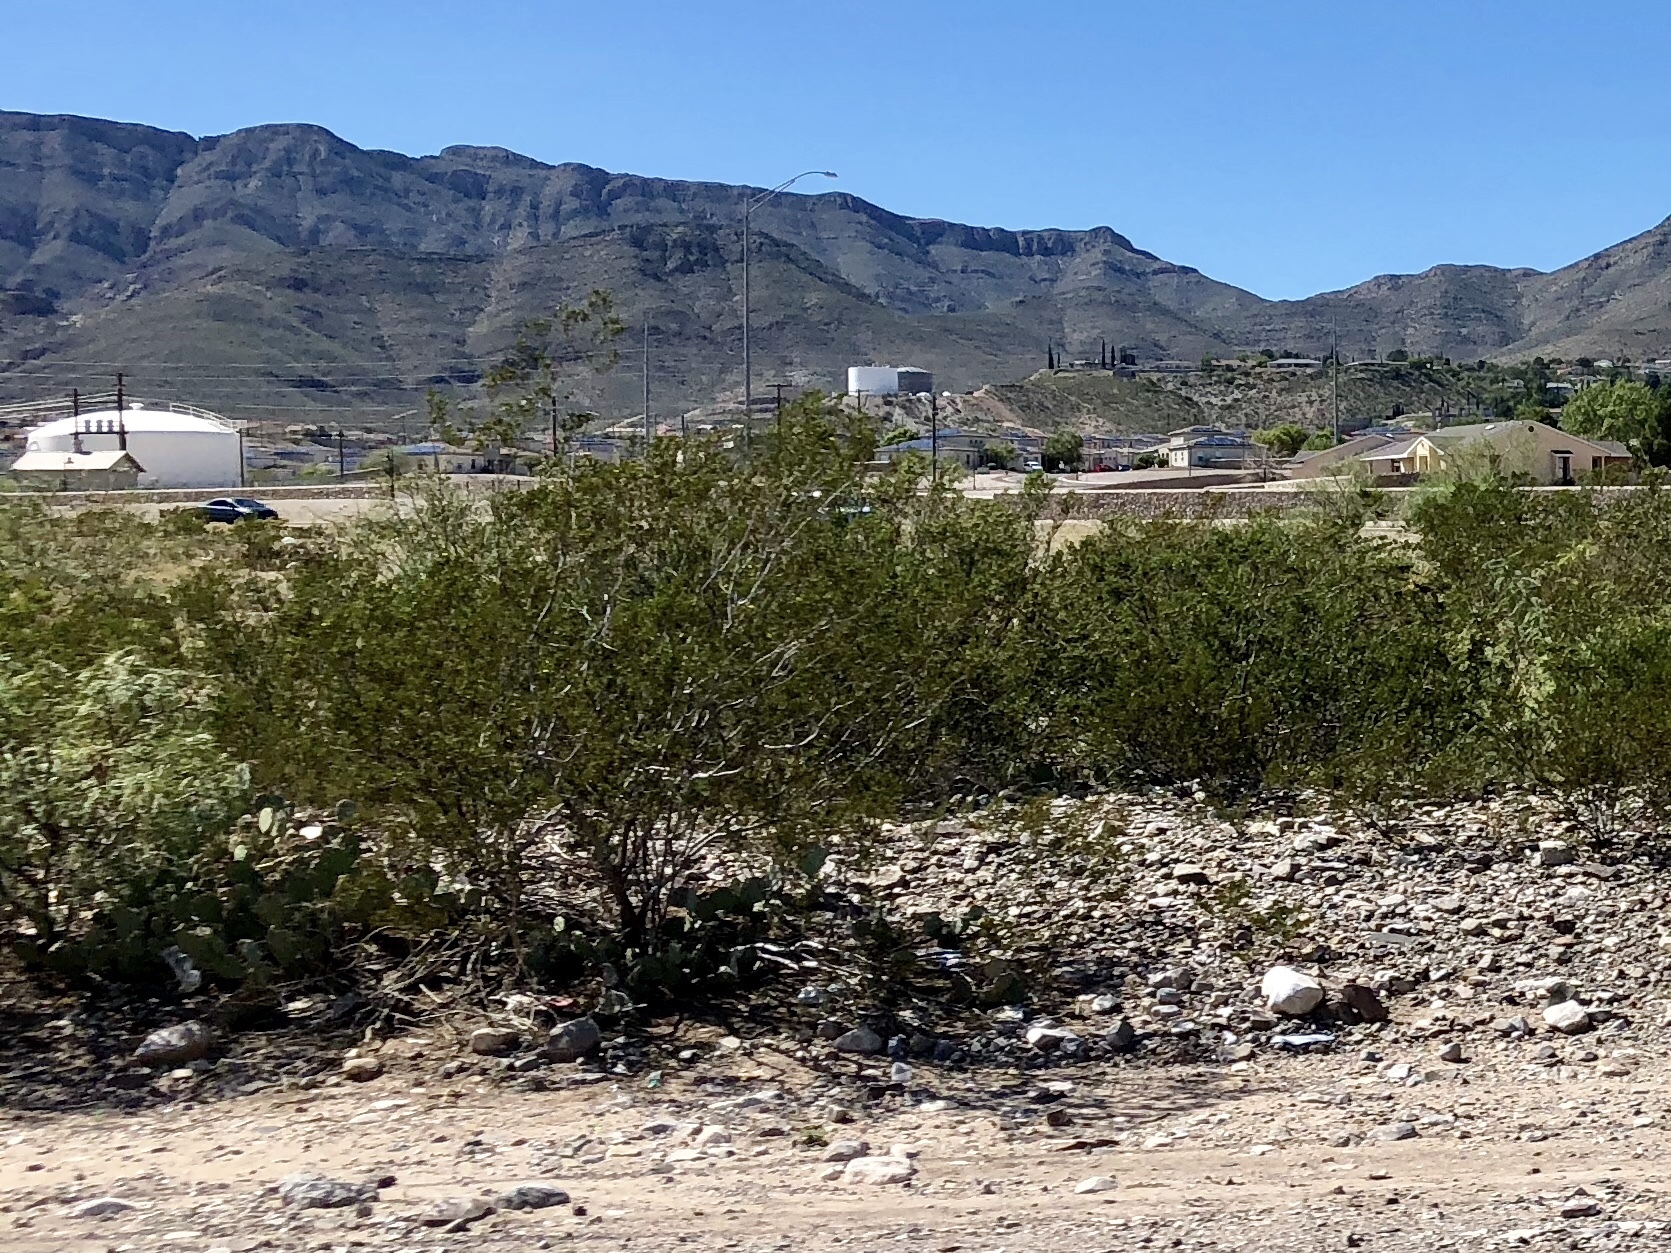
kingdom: Plantae
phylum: Tracheophyta
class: Magnoliopsida
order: Zygophyllales
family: Zygophyllaceae
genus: Larrea
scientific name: Larrea tridentata
